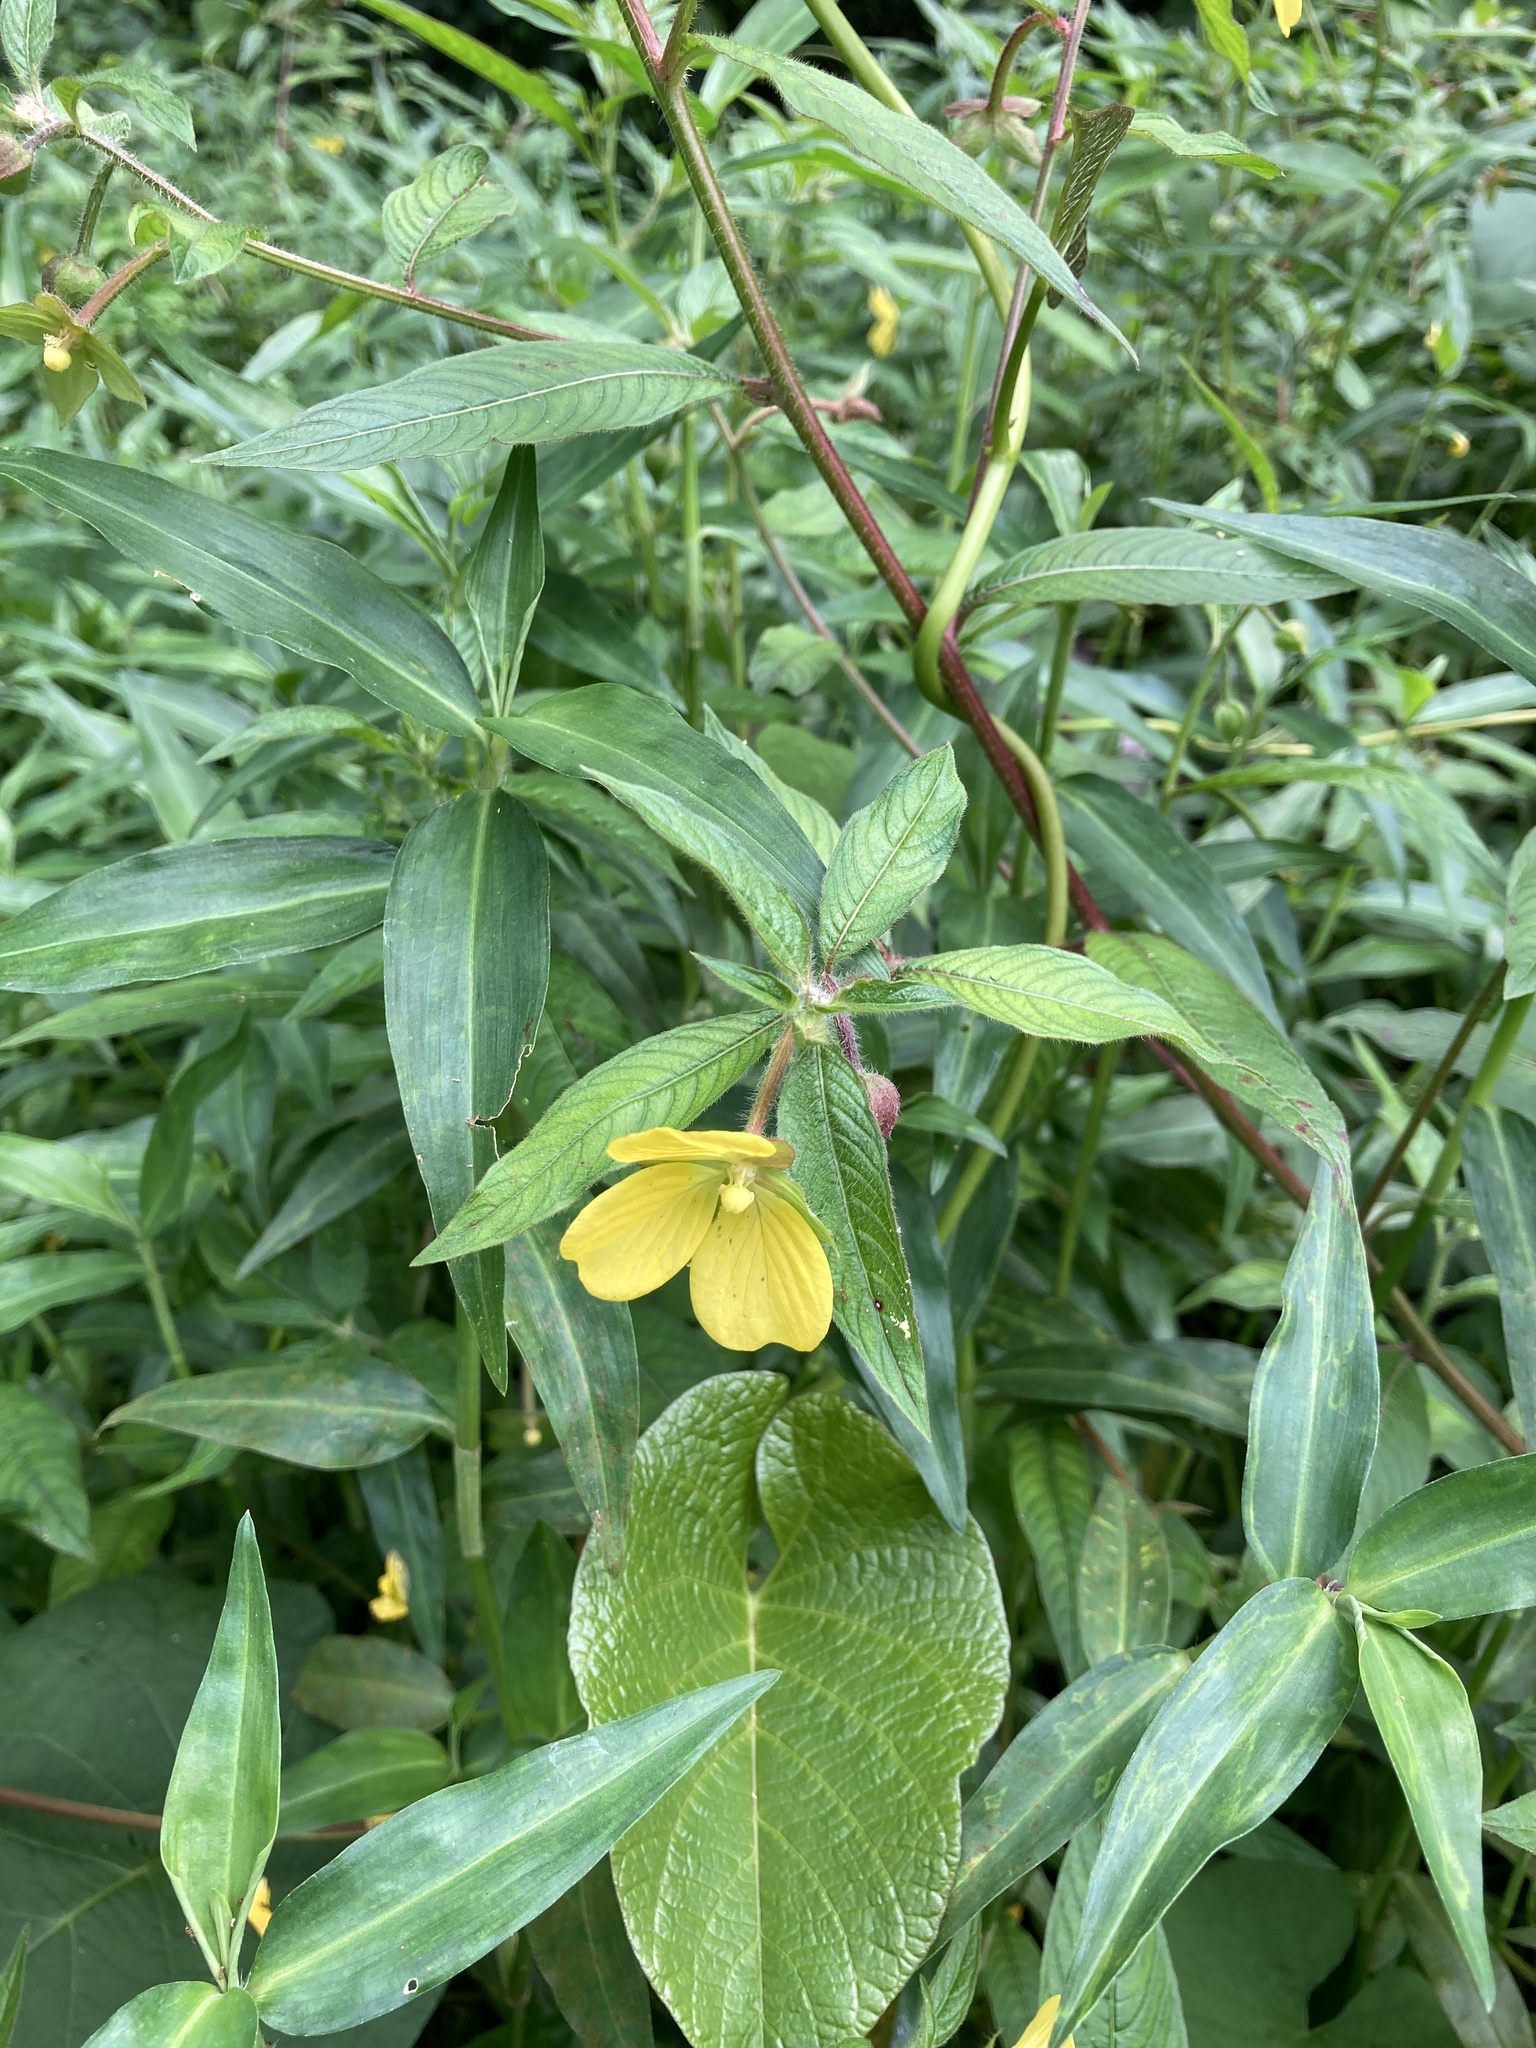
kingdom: Plantae
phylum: Tracheophyta
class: Magnoliopsida
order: Myrtales
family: Onagraceae
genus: Ludwigia
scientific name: Ludwigia octovalvis
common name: Water-primrose
